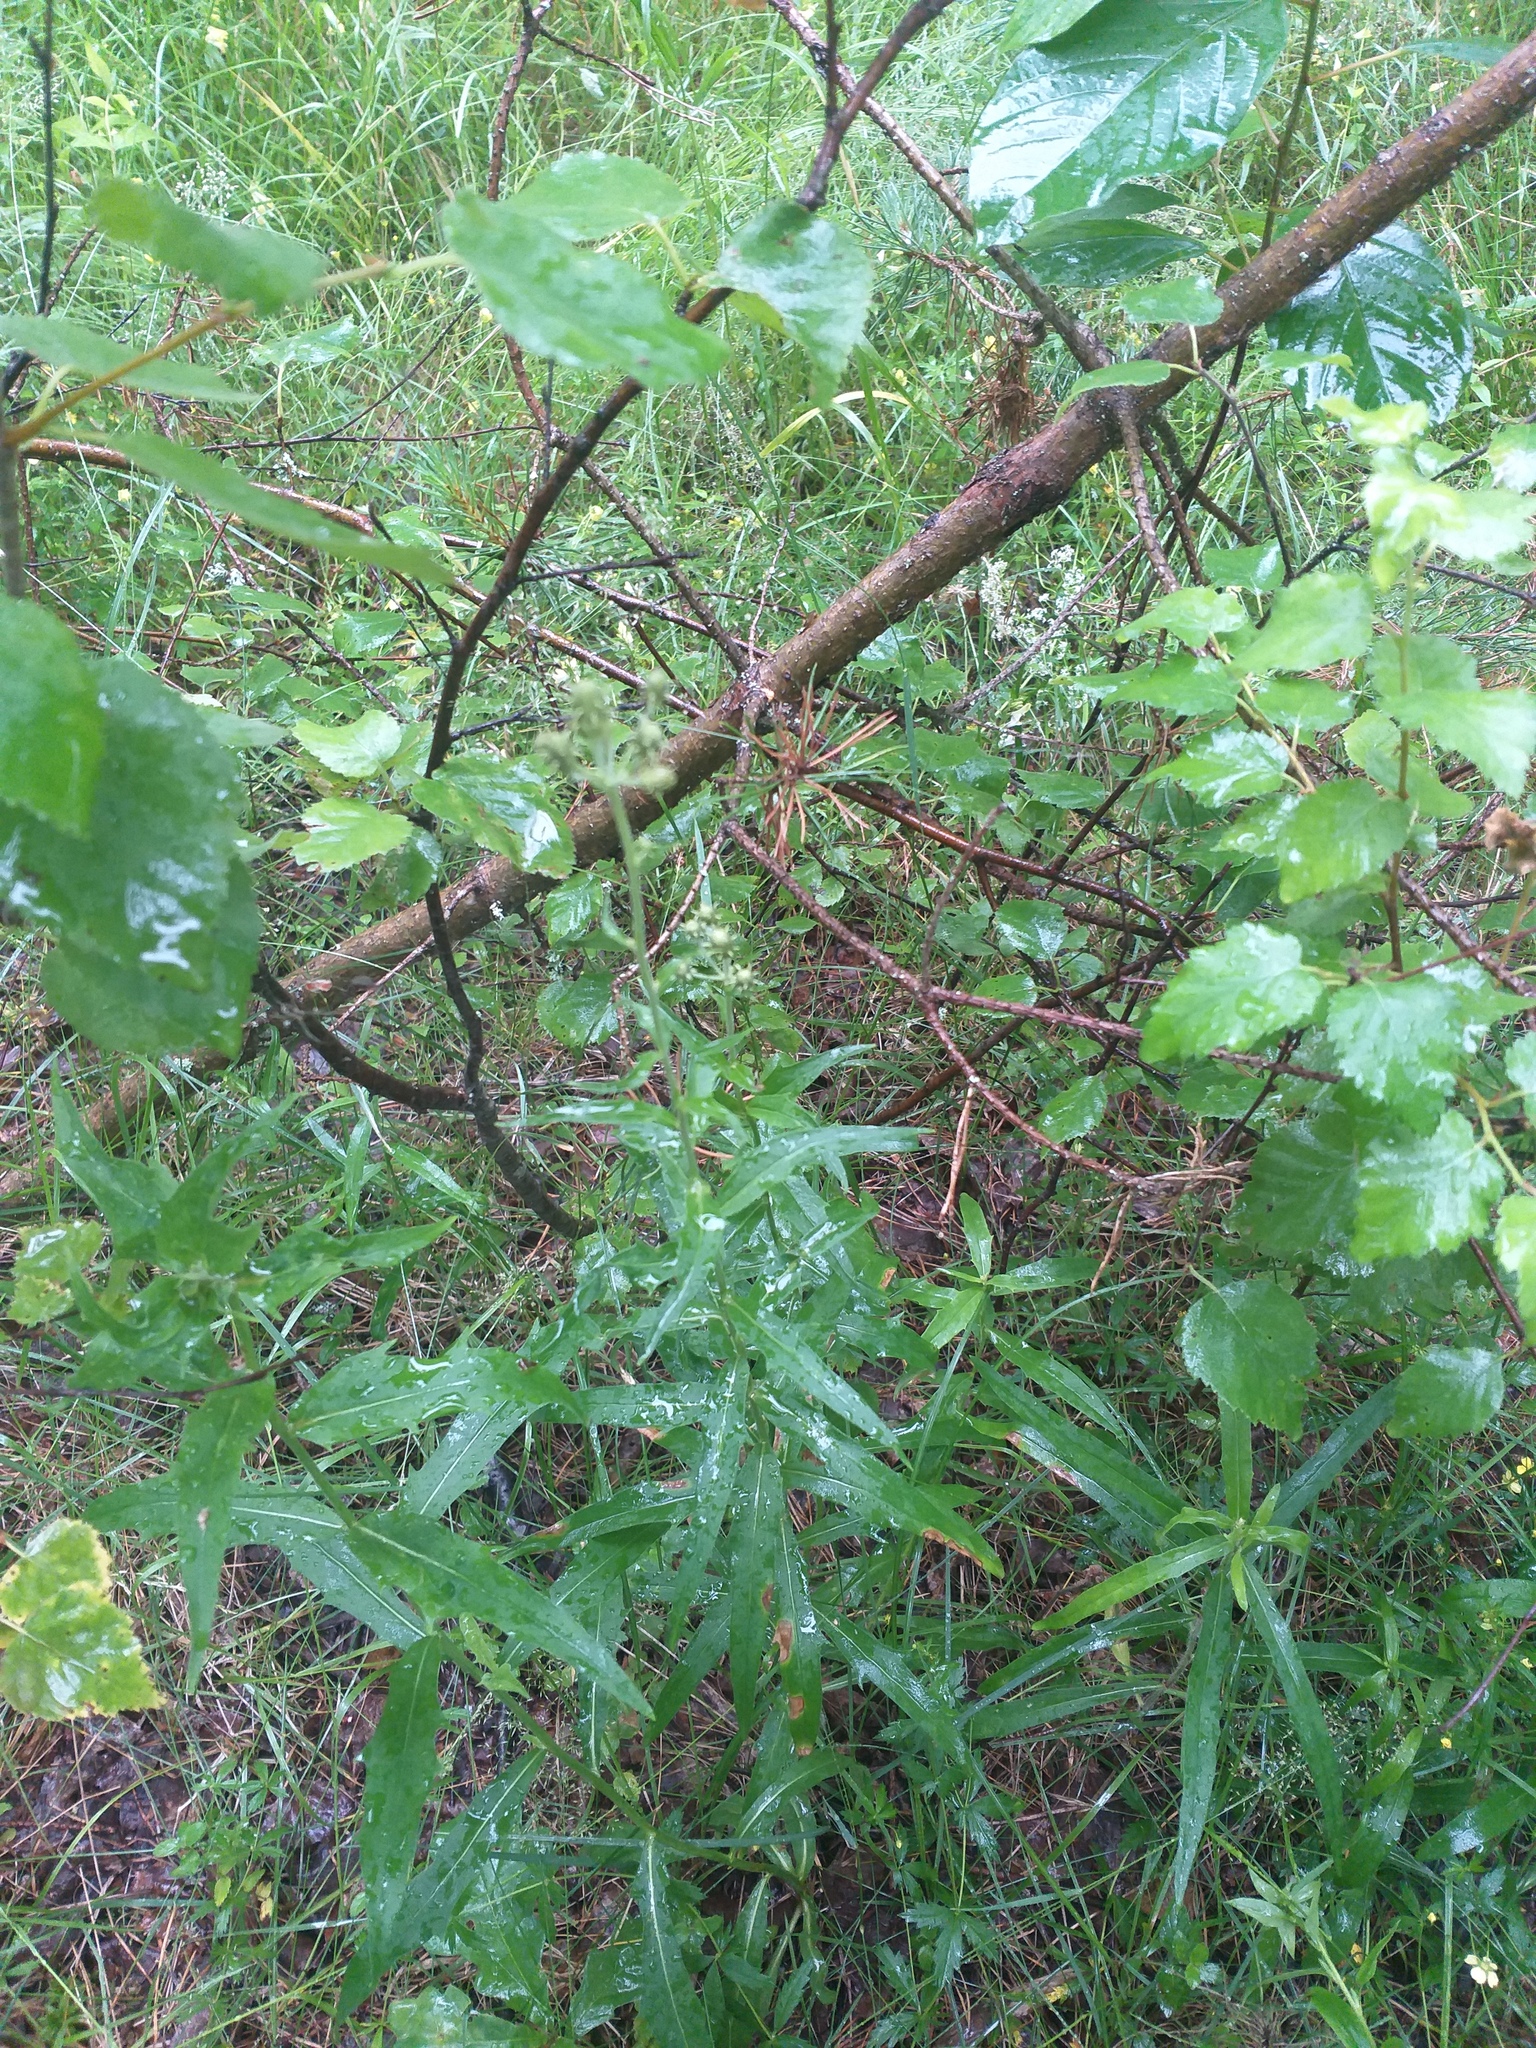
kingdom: Plantae
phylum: Tracheophyta
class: Magnoliopsida
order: Asterales
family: Asteraceae
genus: Hieracium
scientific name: Hieracium umbellatum
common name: Northern hawkweed
